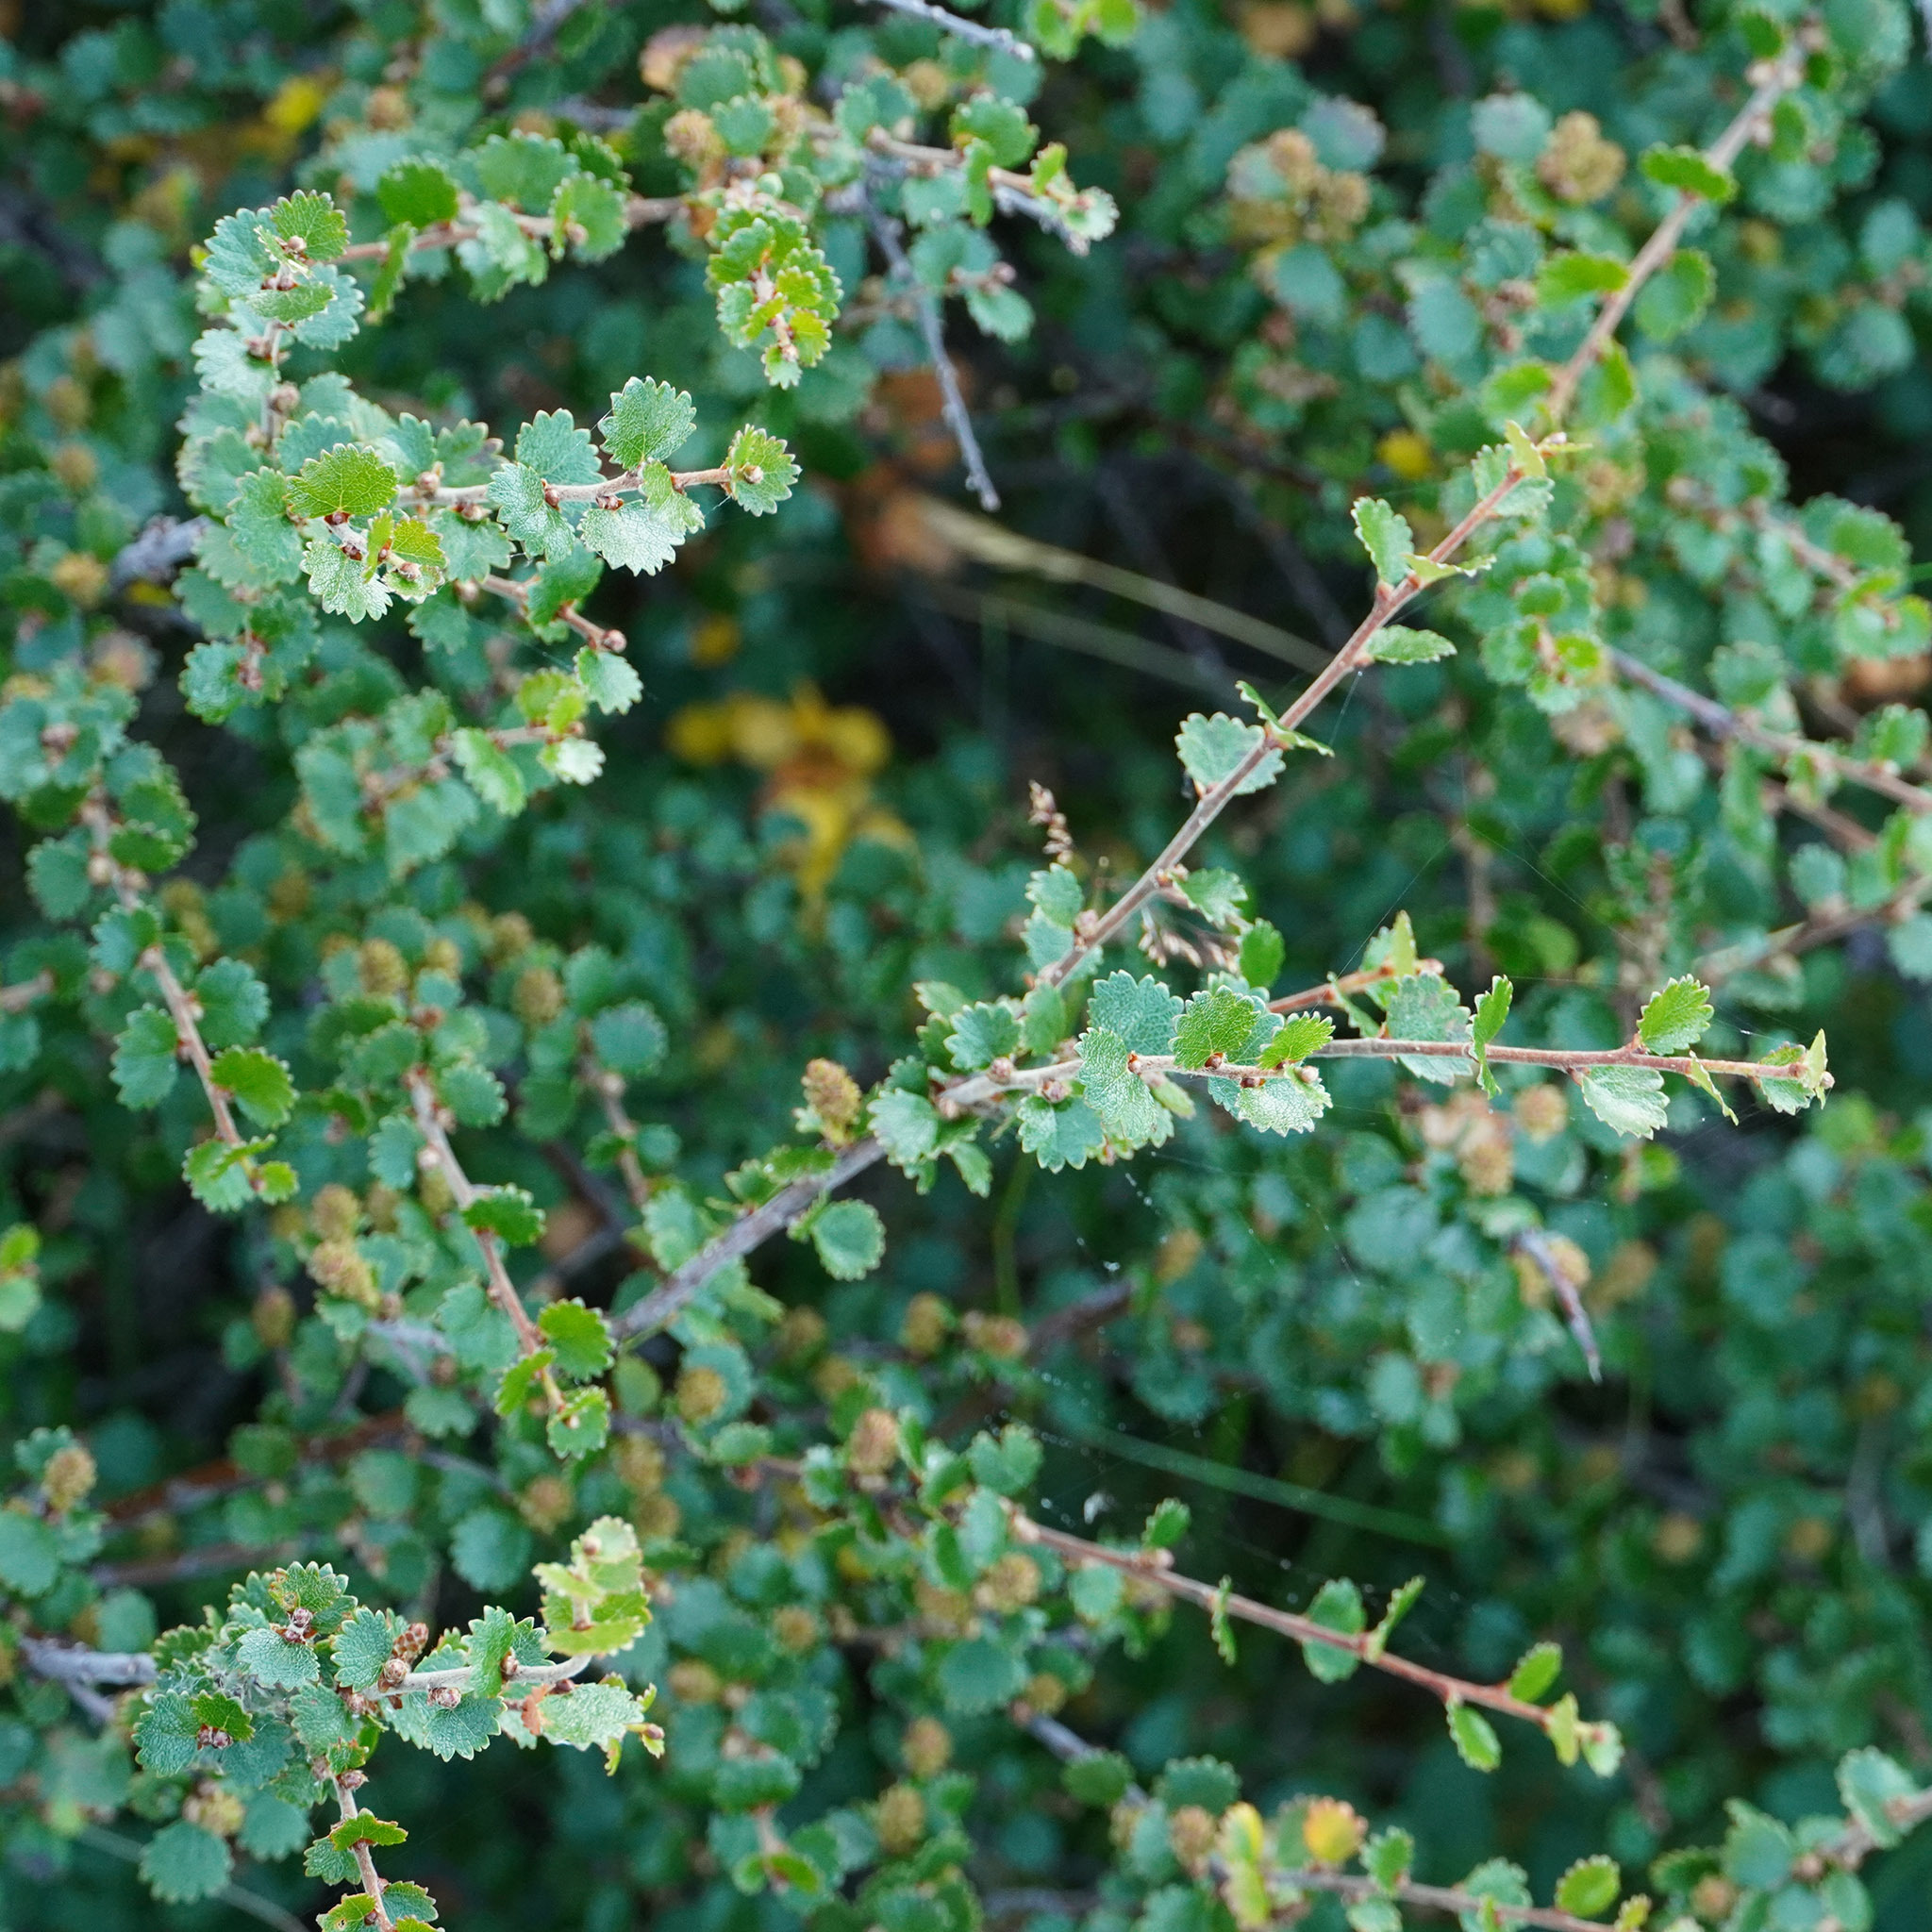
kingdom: Plantae
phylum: Tracheophyta
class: Magnoliopsida
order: Fagales
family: Betulaceae
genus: Betula
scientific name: Betula nana
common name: Arctic dwarf birch
